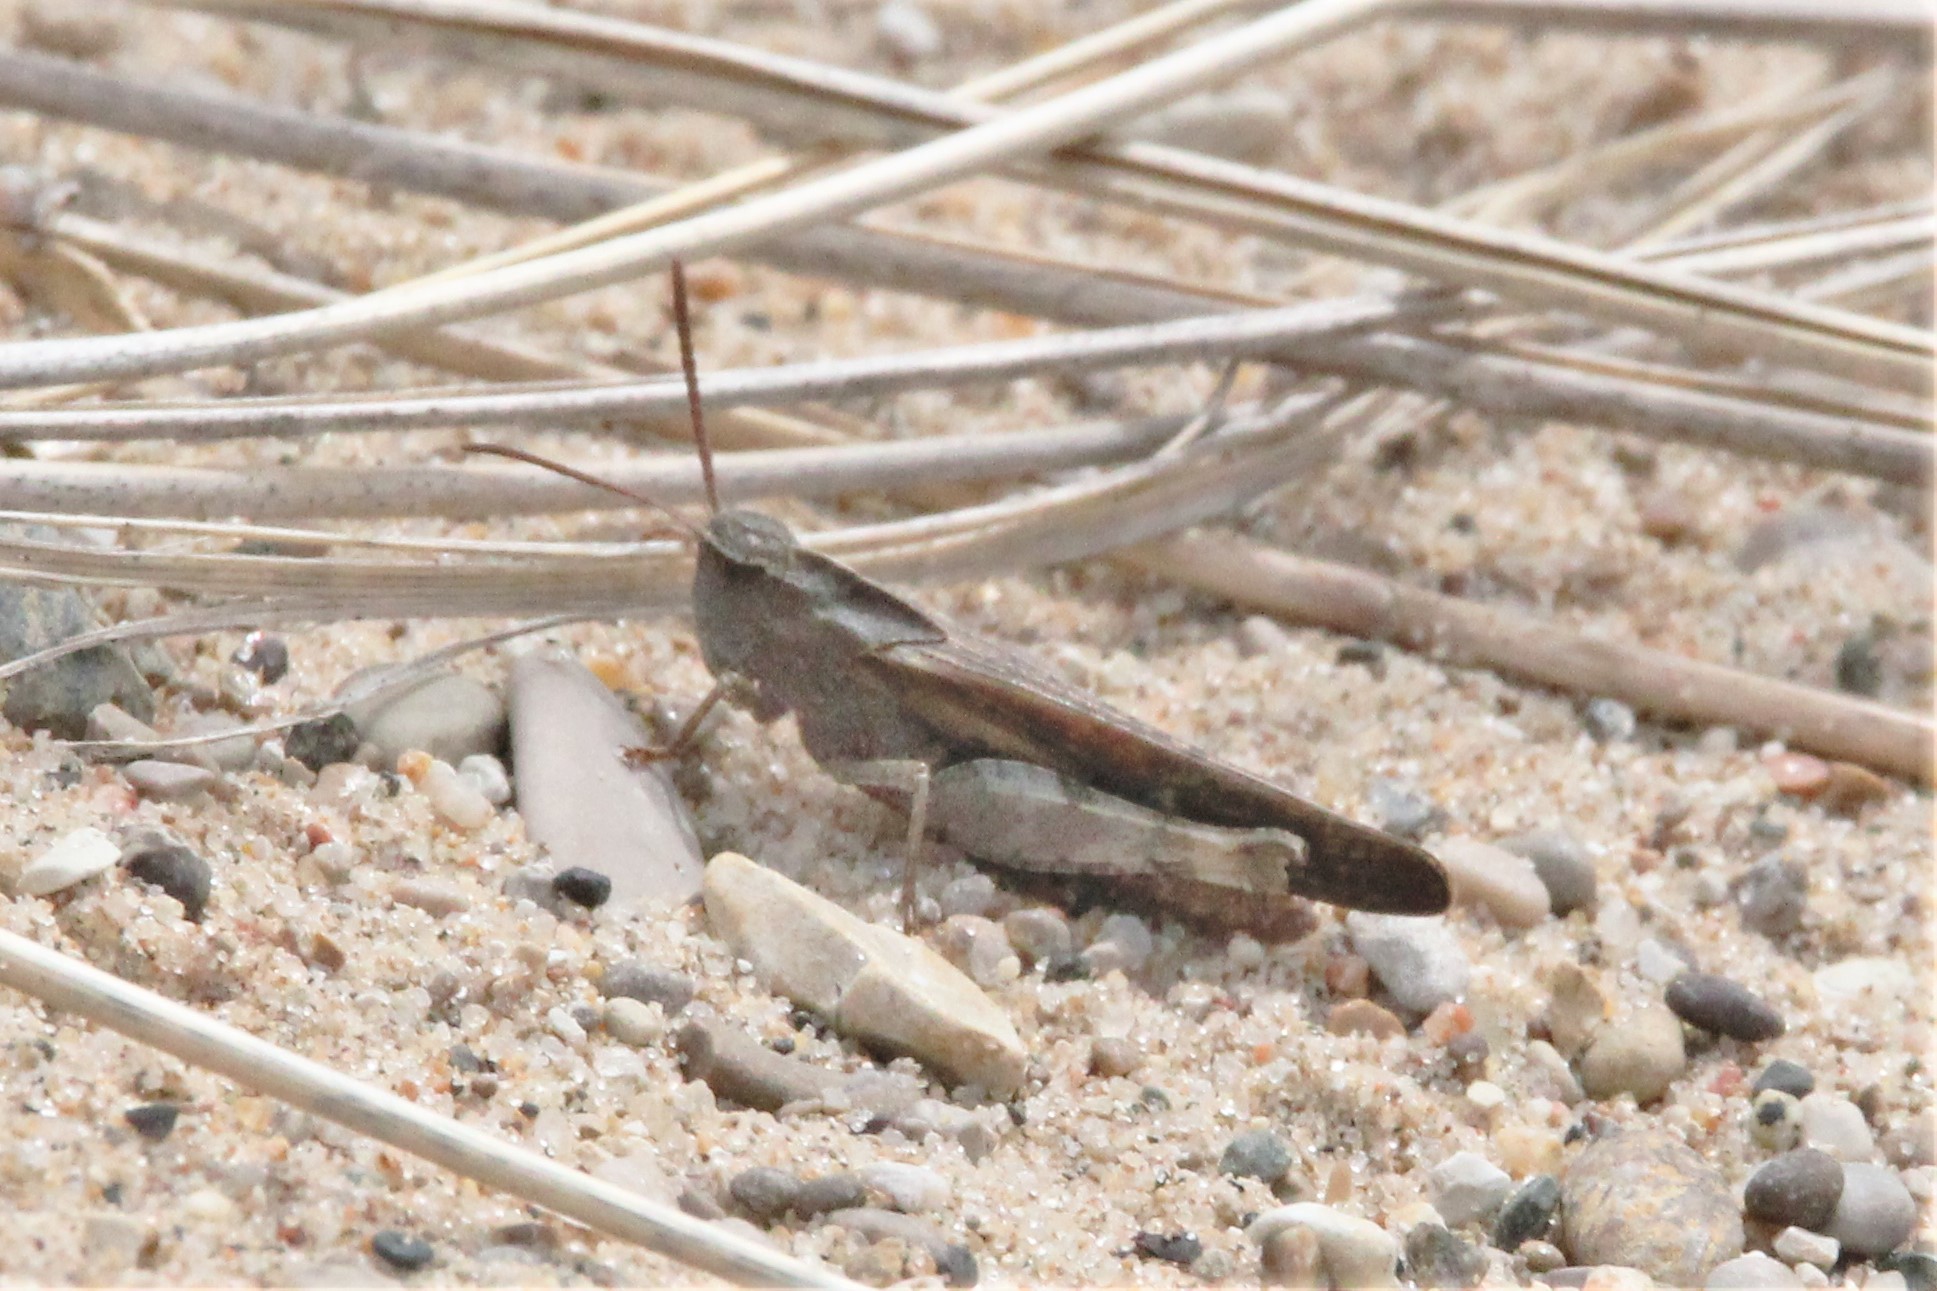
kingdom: Animalia
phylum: Arthropoda
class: Insecta
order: Orthoptera
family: Acrididae
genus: Chortophaga
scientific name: Chortophaga viridifasciata
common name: Green-striped grasshopper
